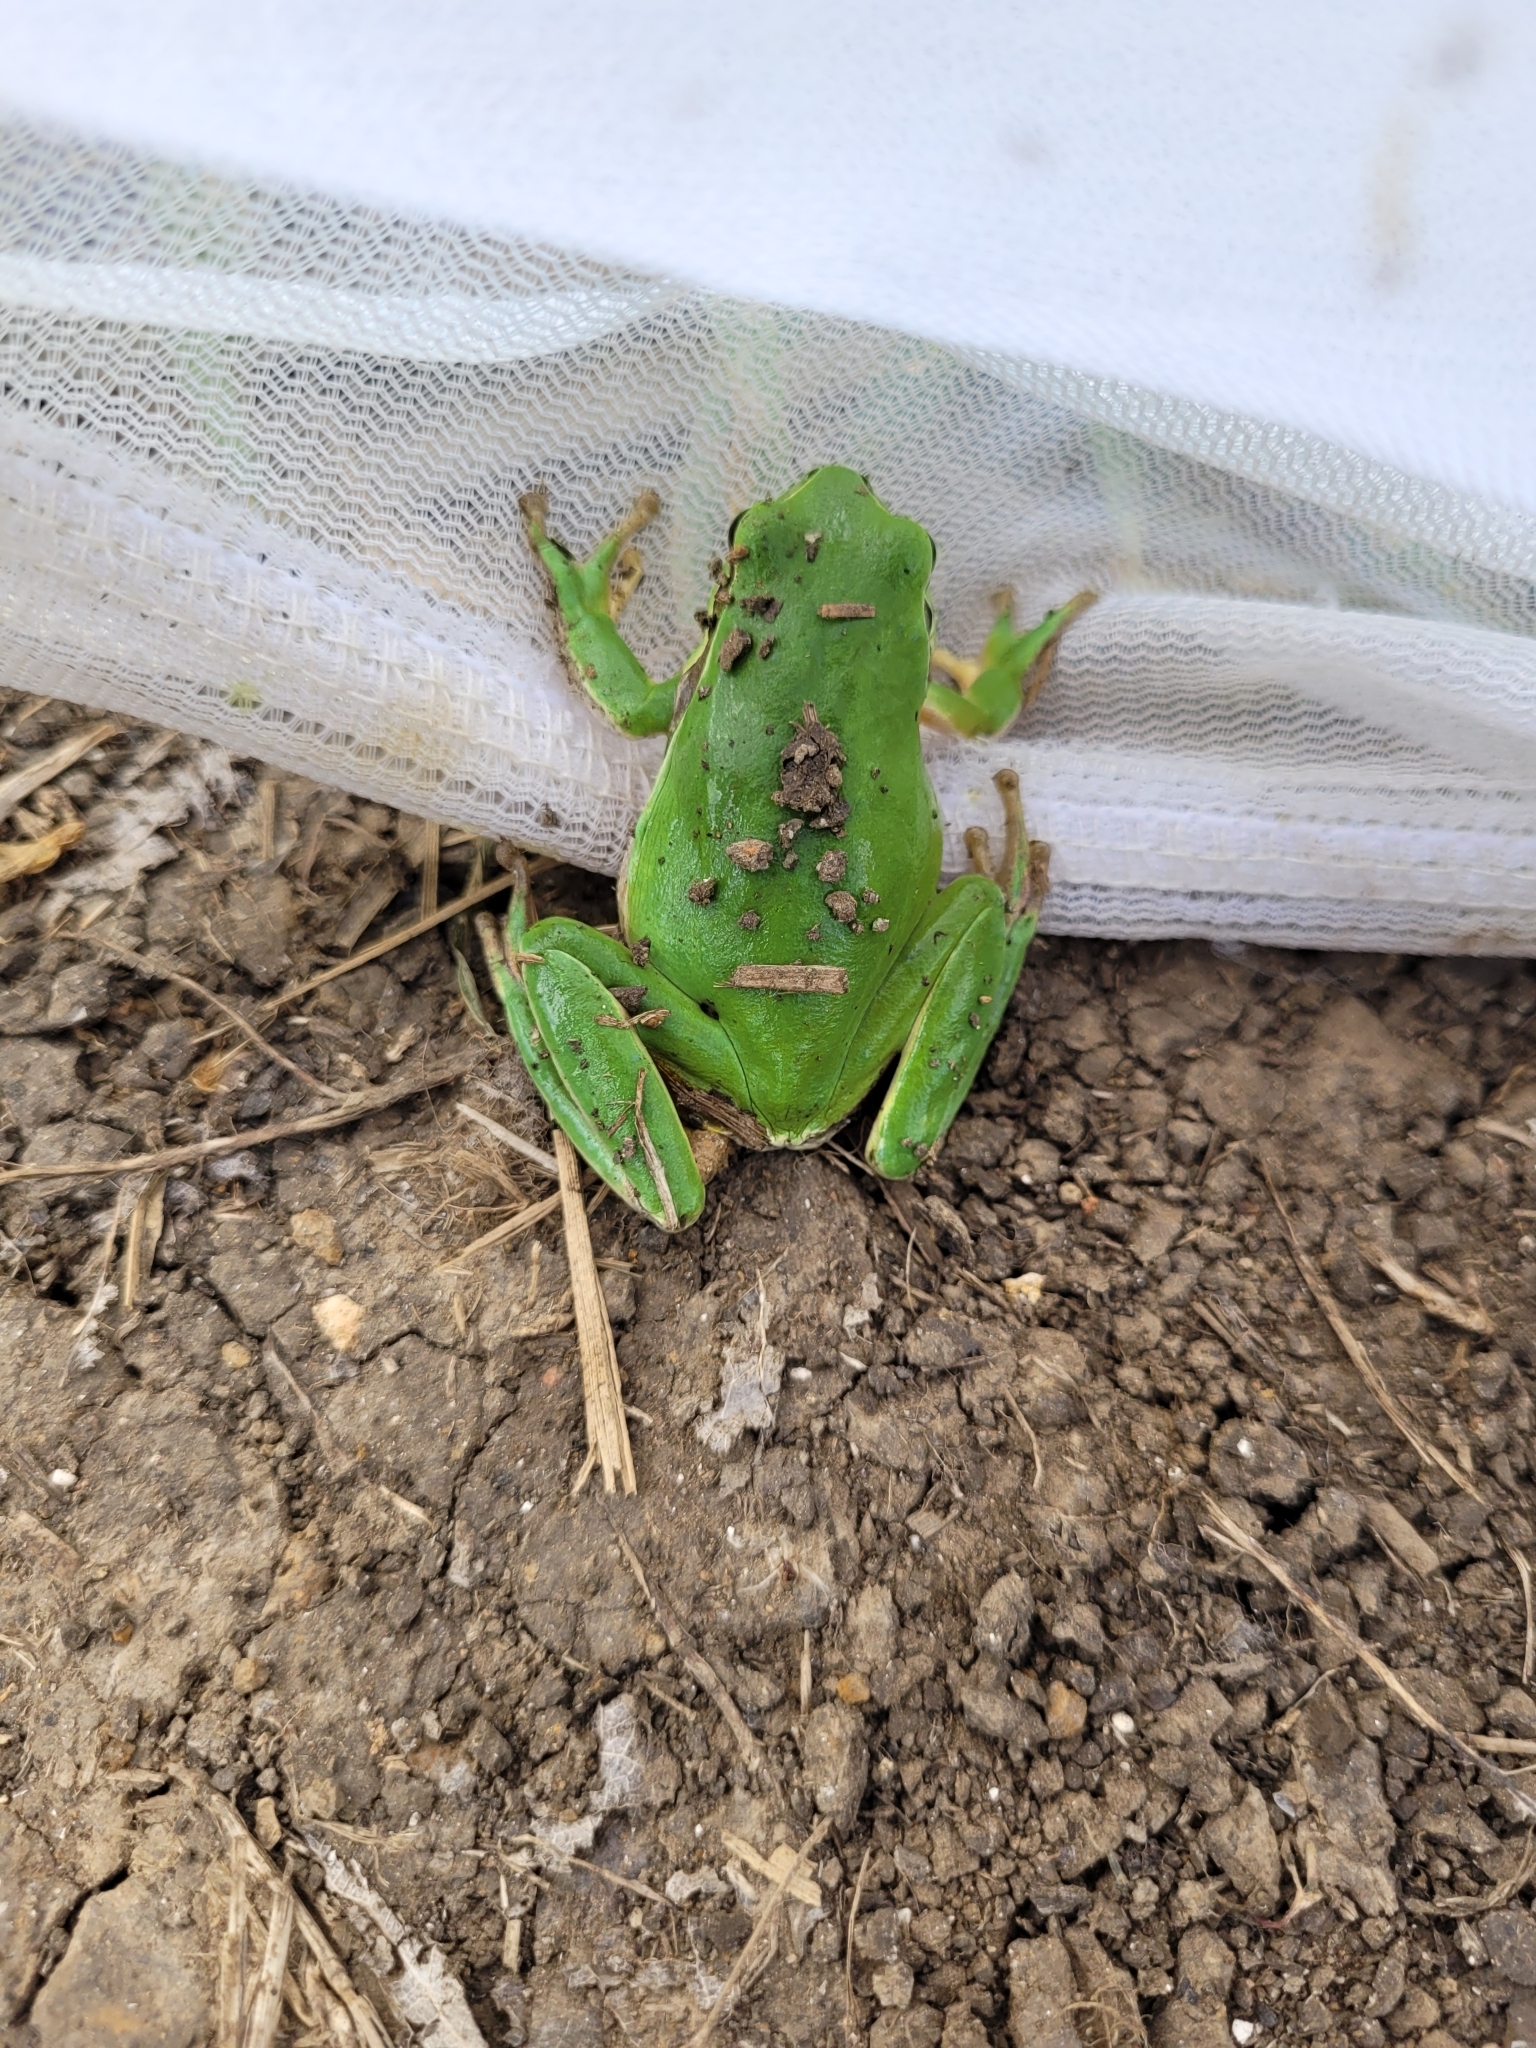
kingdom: Animalia
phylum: Chordata
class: Amphibia
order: Anura
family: Hylidae
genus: Hyla
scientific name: Hyla felixarabica
